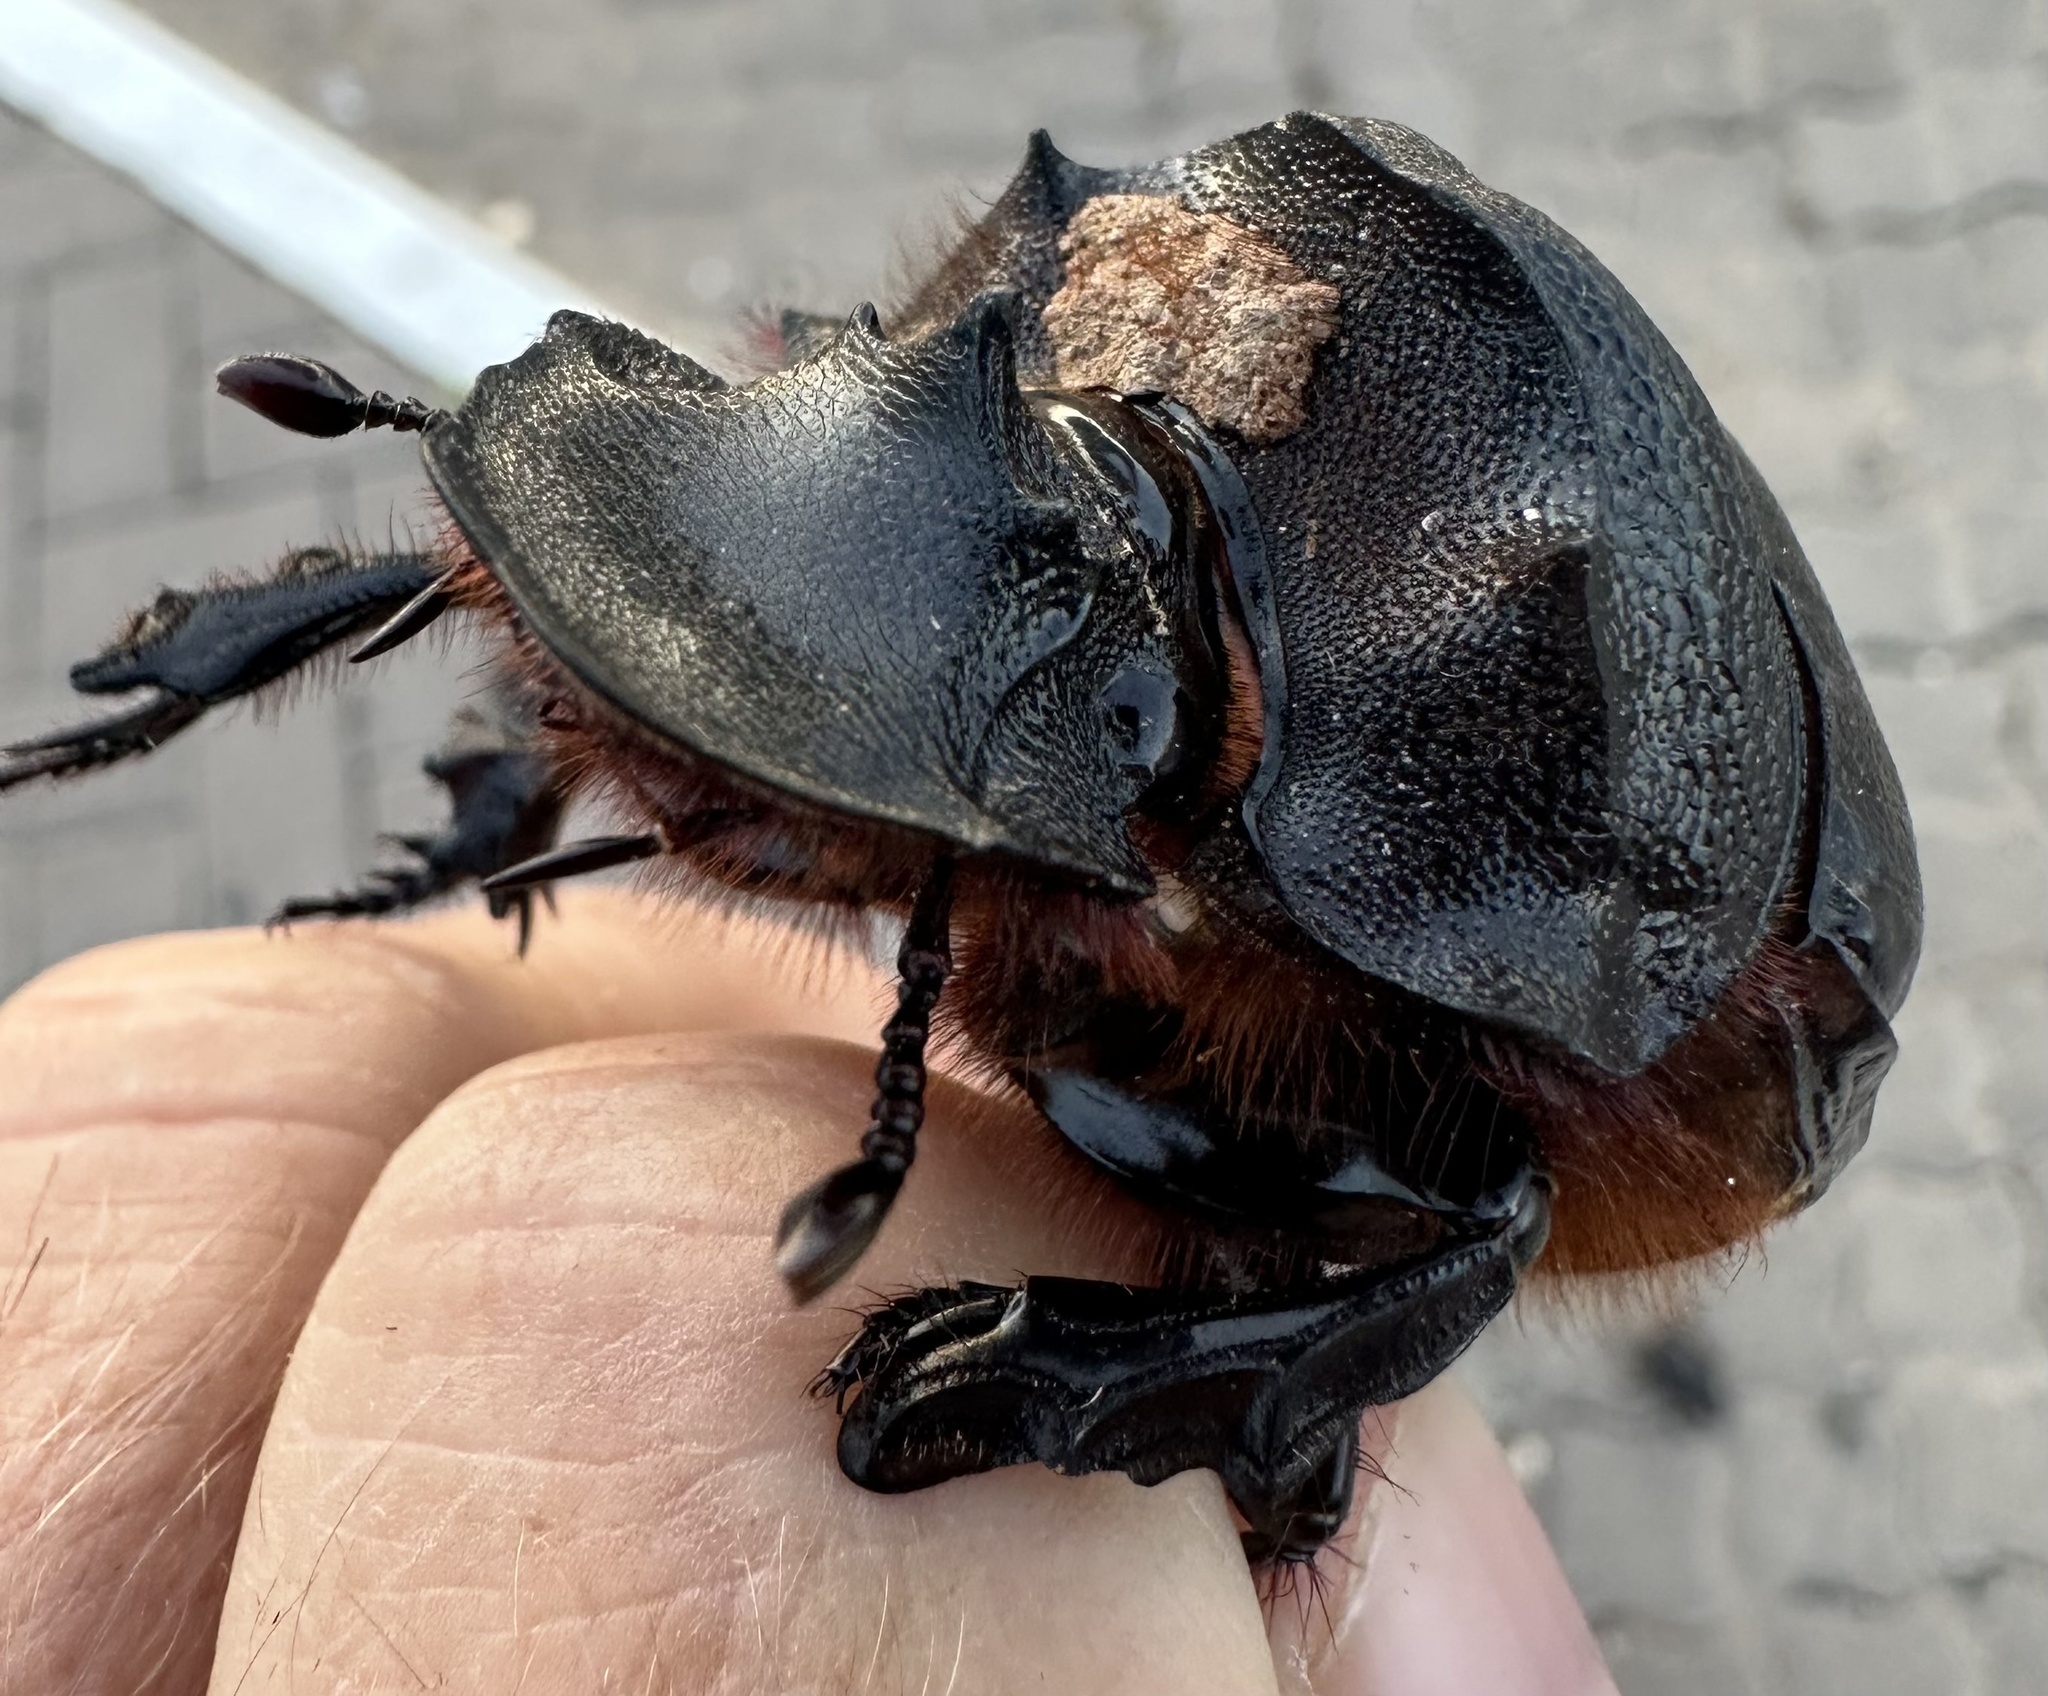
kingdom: Animalia
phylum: Arthropoda
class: Insecta
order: Coleoptera
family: Scarabaeidae
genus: Heliocopris
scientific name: Heliocopris andersoni
